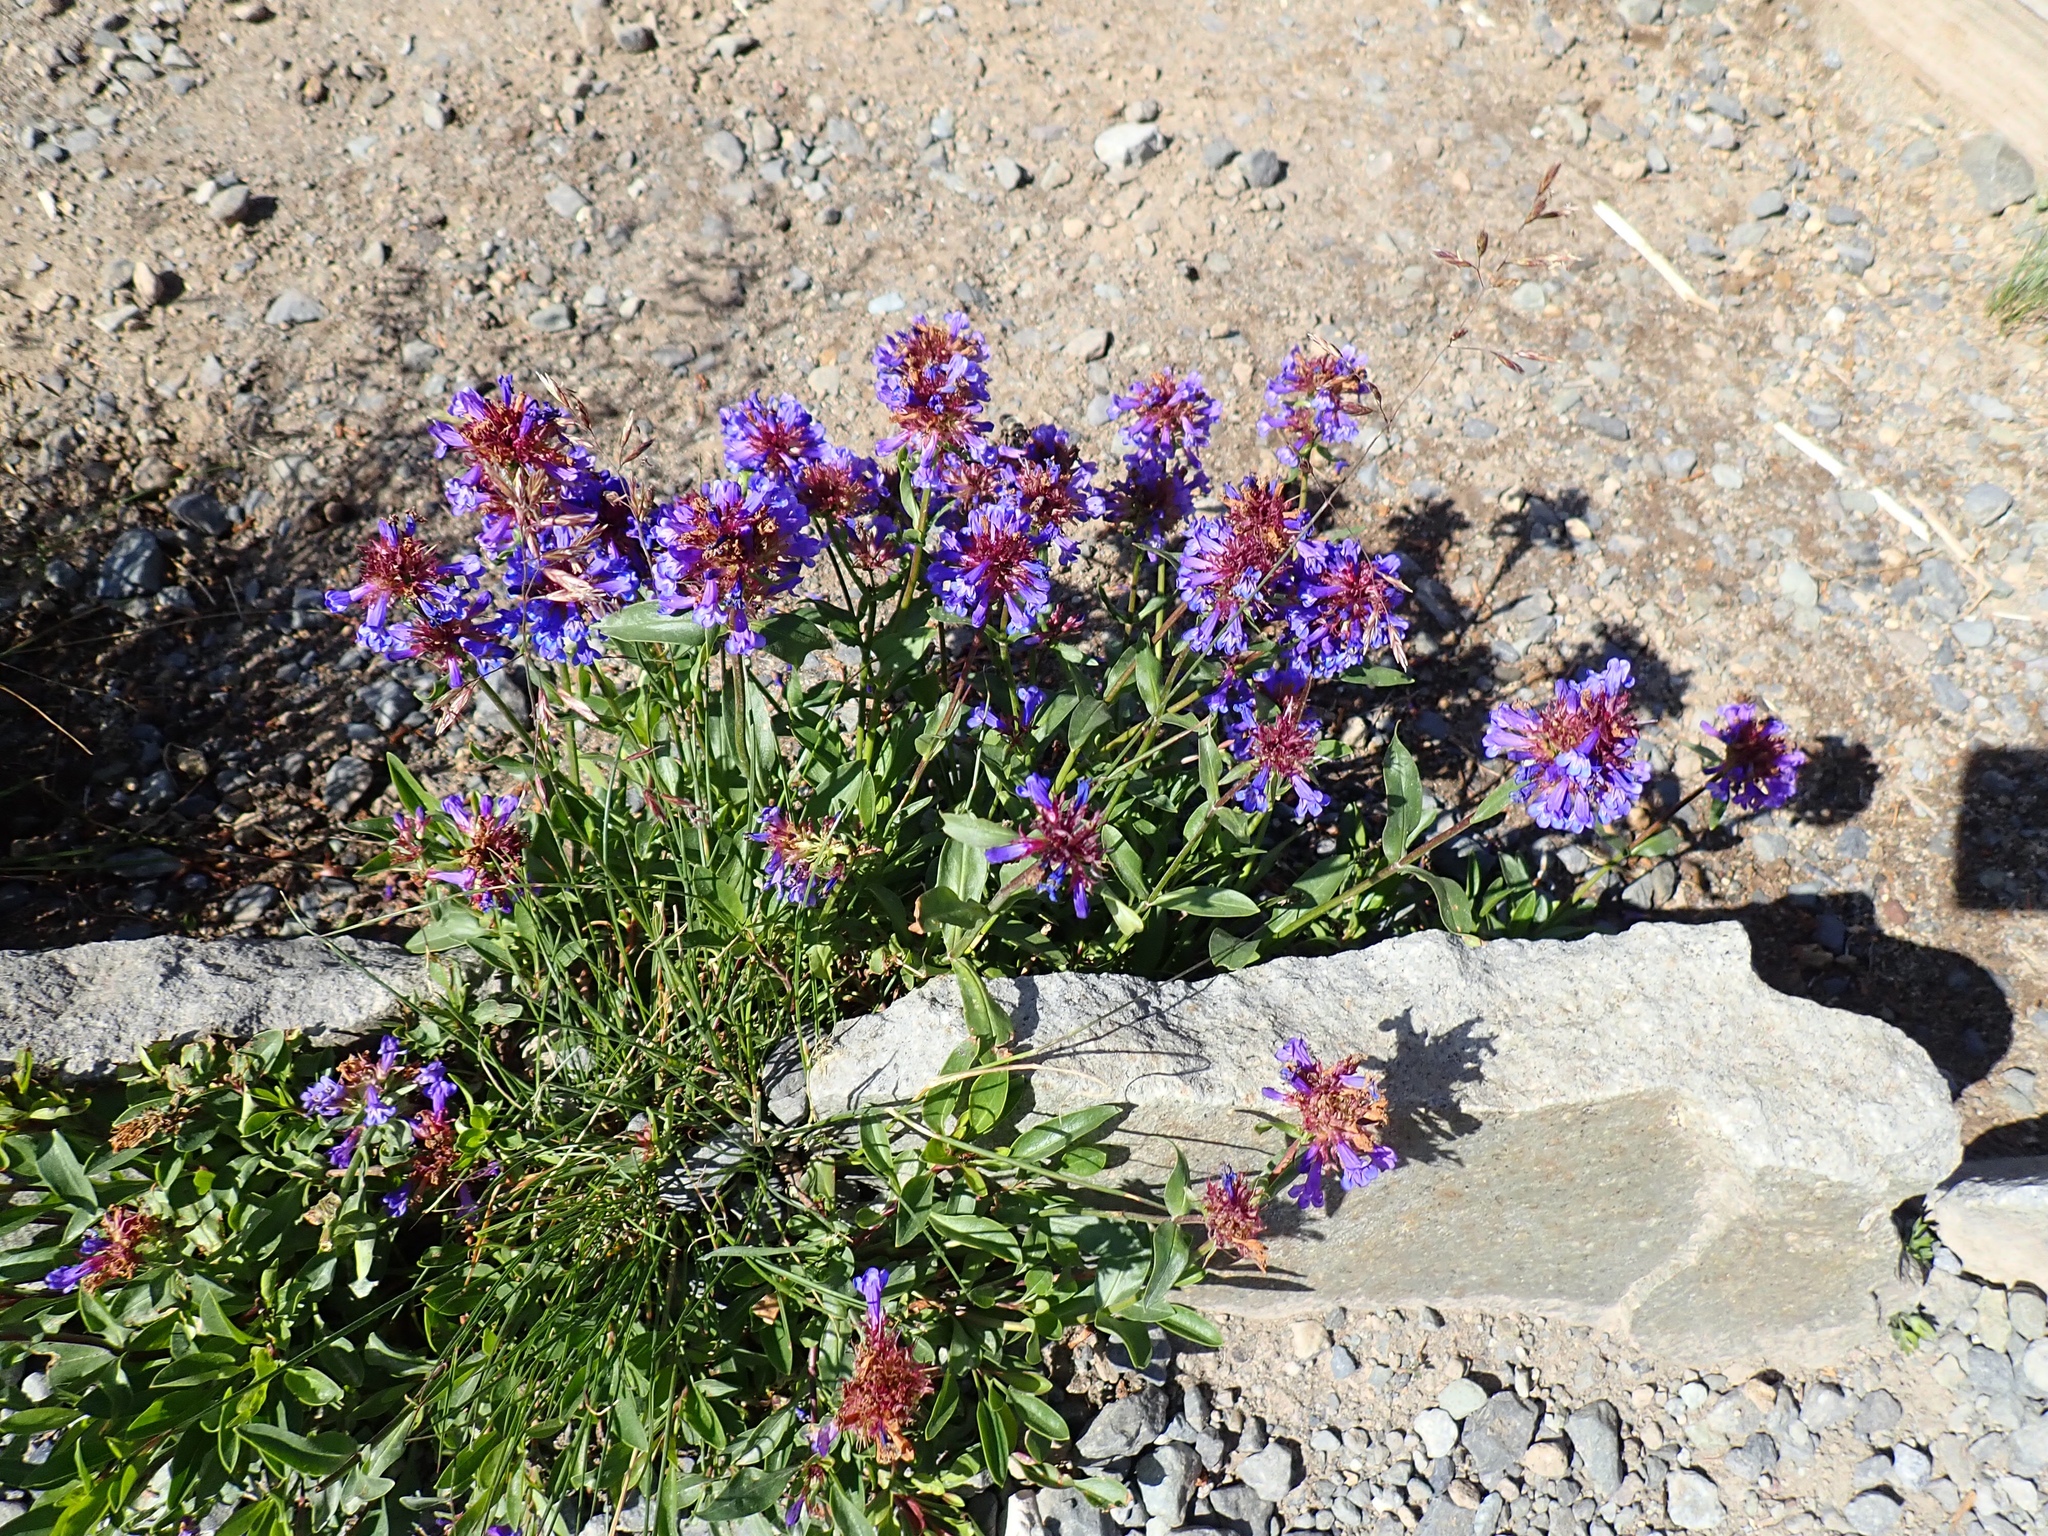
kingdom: Plantae
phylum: Tracheophyta
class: Magnoliopsida
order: Lamiales
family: Plantaginaceae
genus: Penstemon
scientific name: Penstemon procerus
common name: Small-flower penstemon
